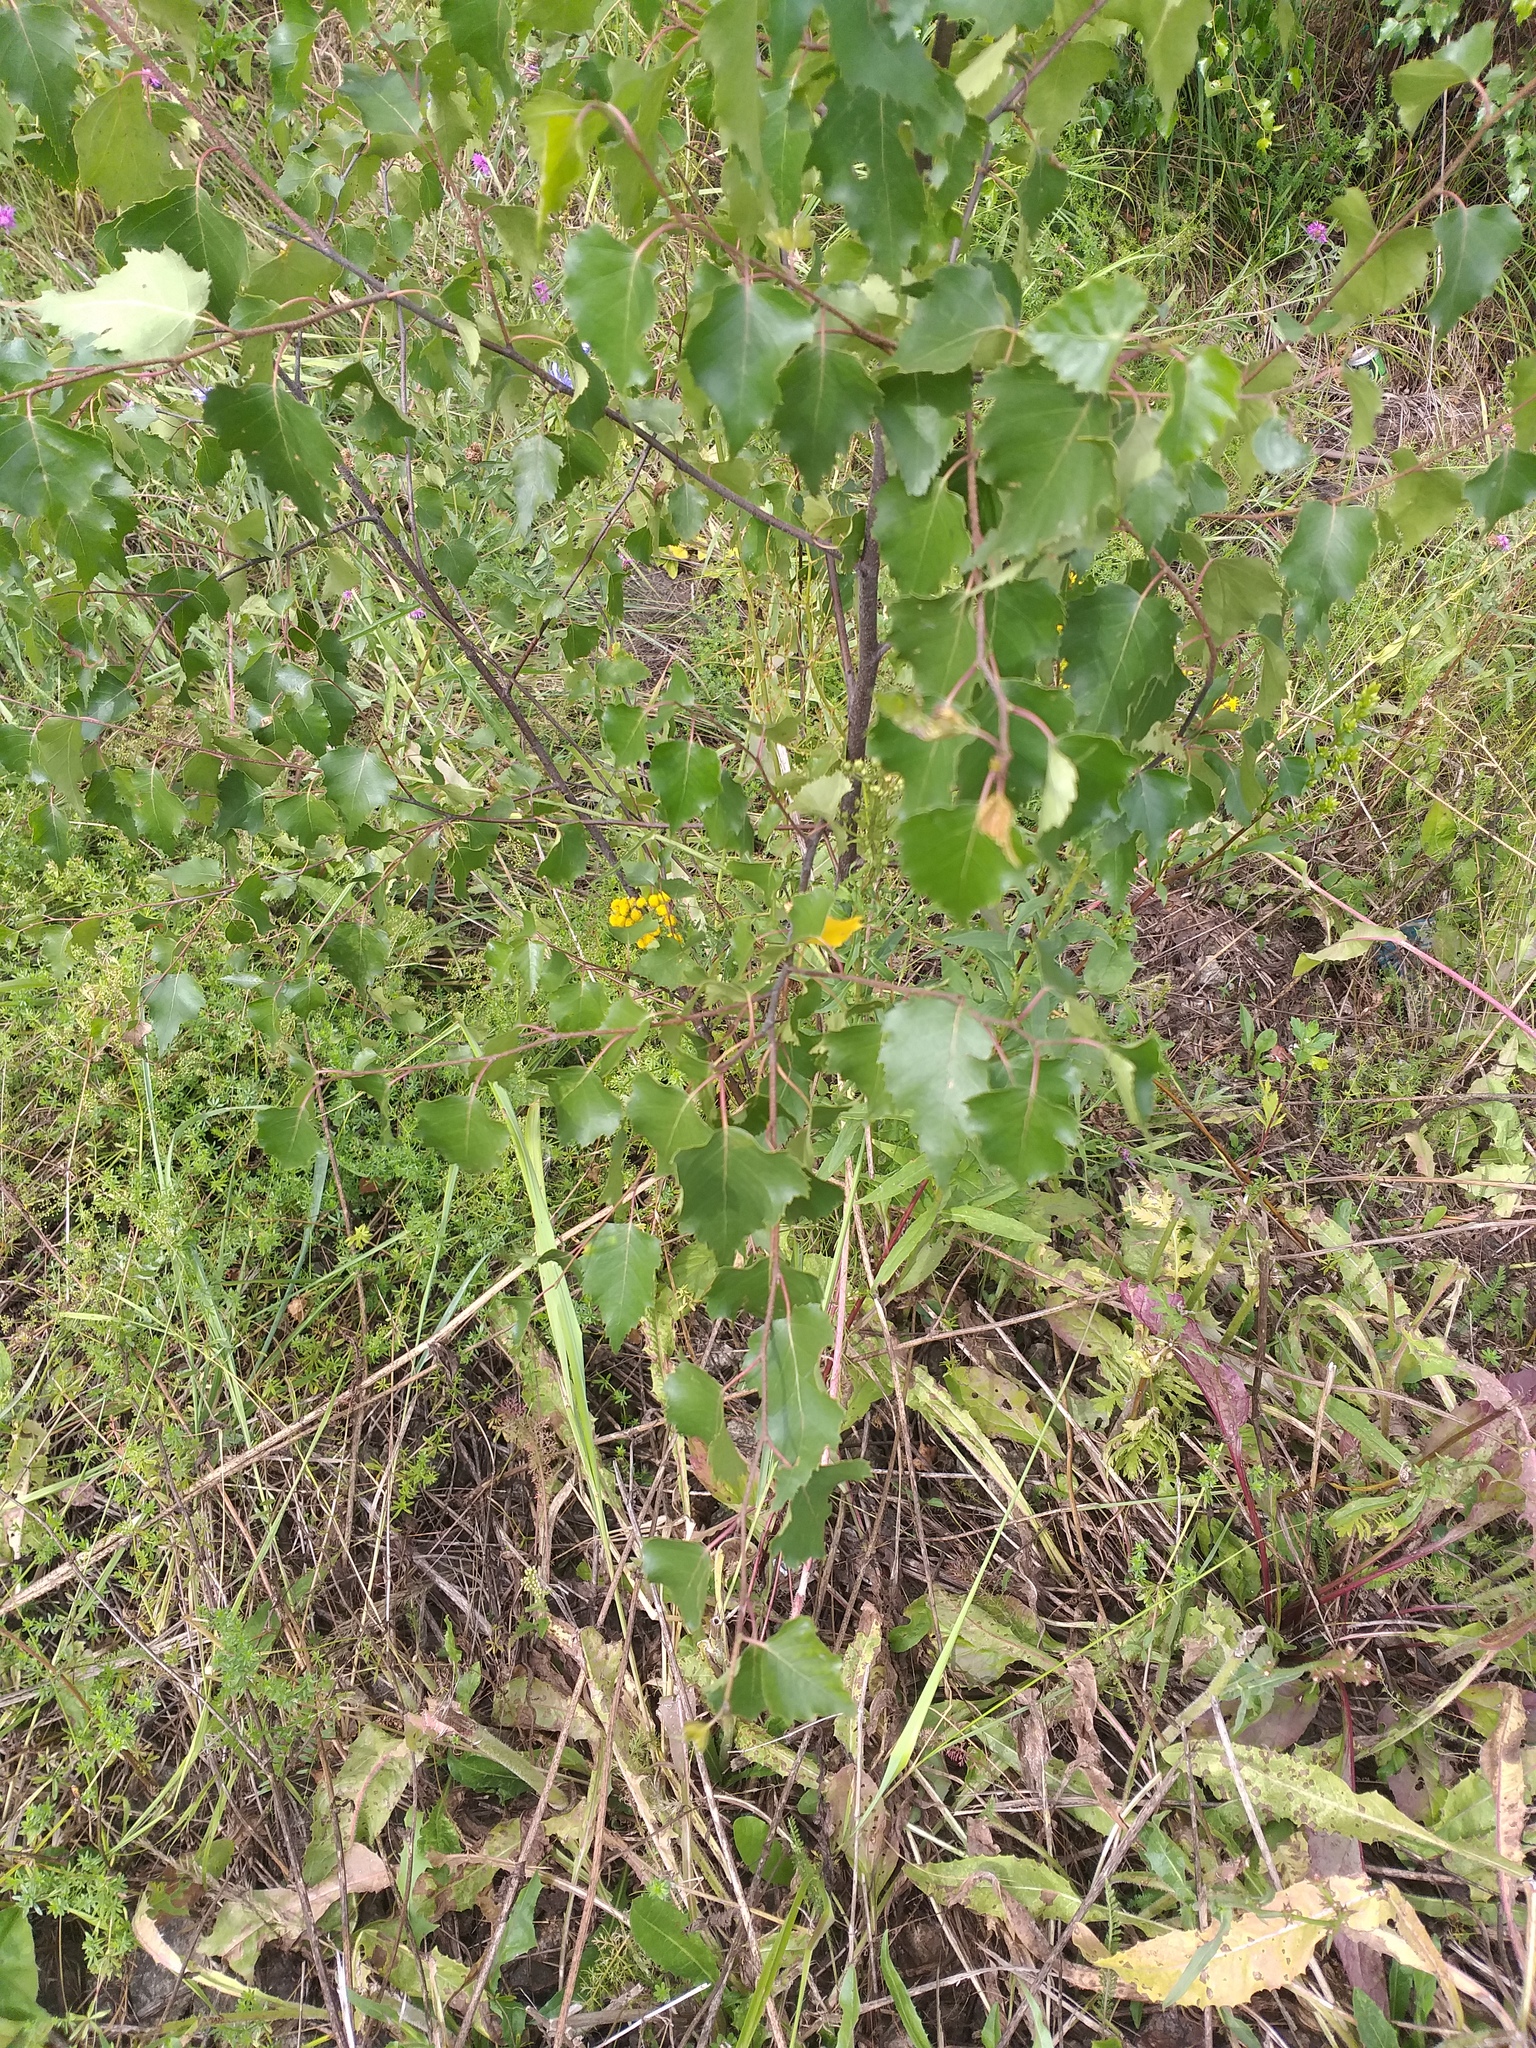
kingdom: Plantae
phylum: Tracheophyta
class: Magnoliopsida
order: Fagales
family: Betulaceae
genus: Betula
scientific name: Betula pendula
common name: Silver birch
